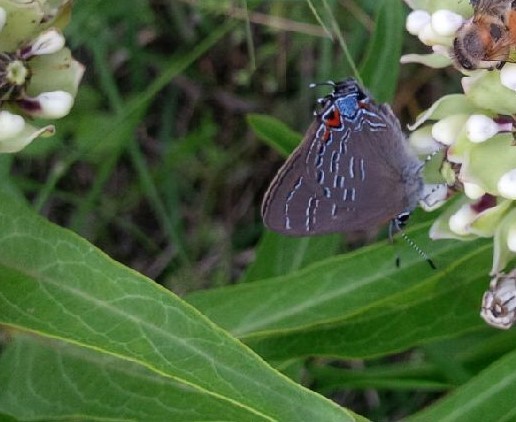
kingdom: Animalia
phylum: Arthropoda
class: Insecta
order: Lepidoptera
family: Lycaenidae
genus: Satyrium
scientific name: Satyrium calanus
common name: Banded hairstreak
